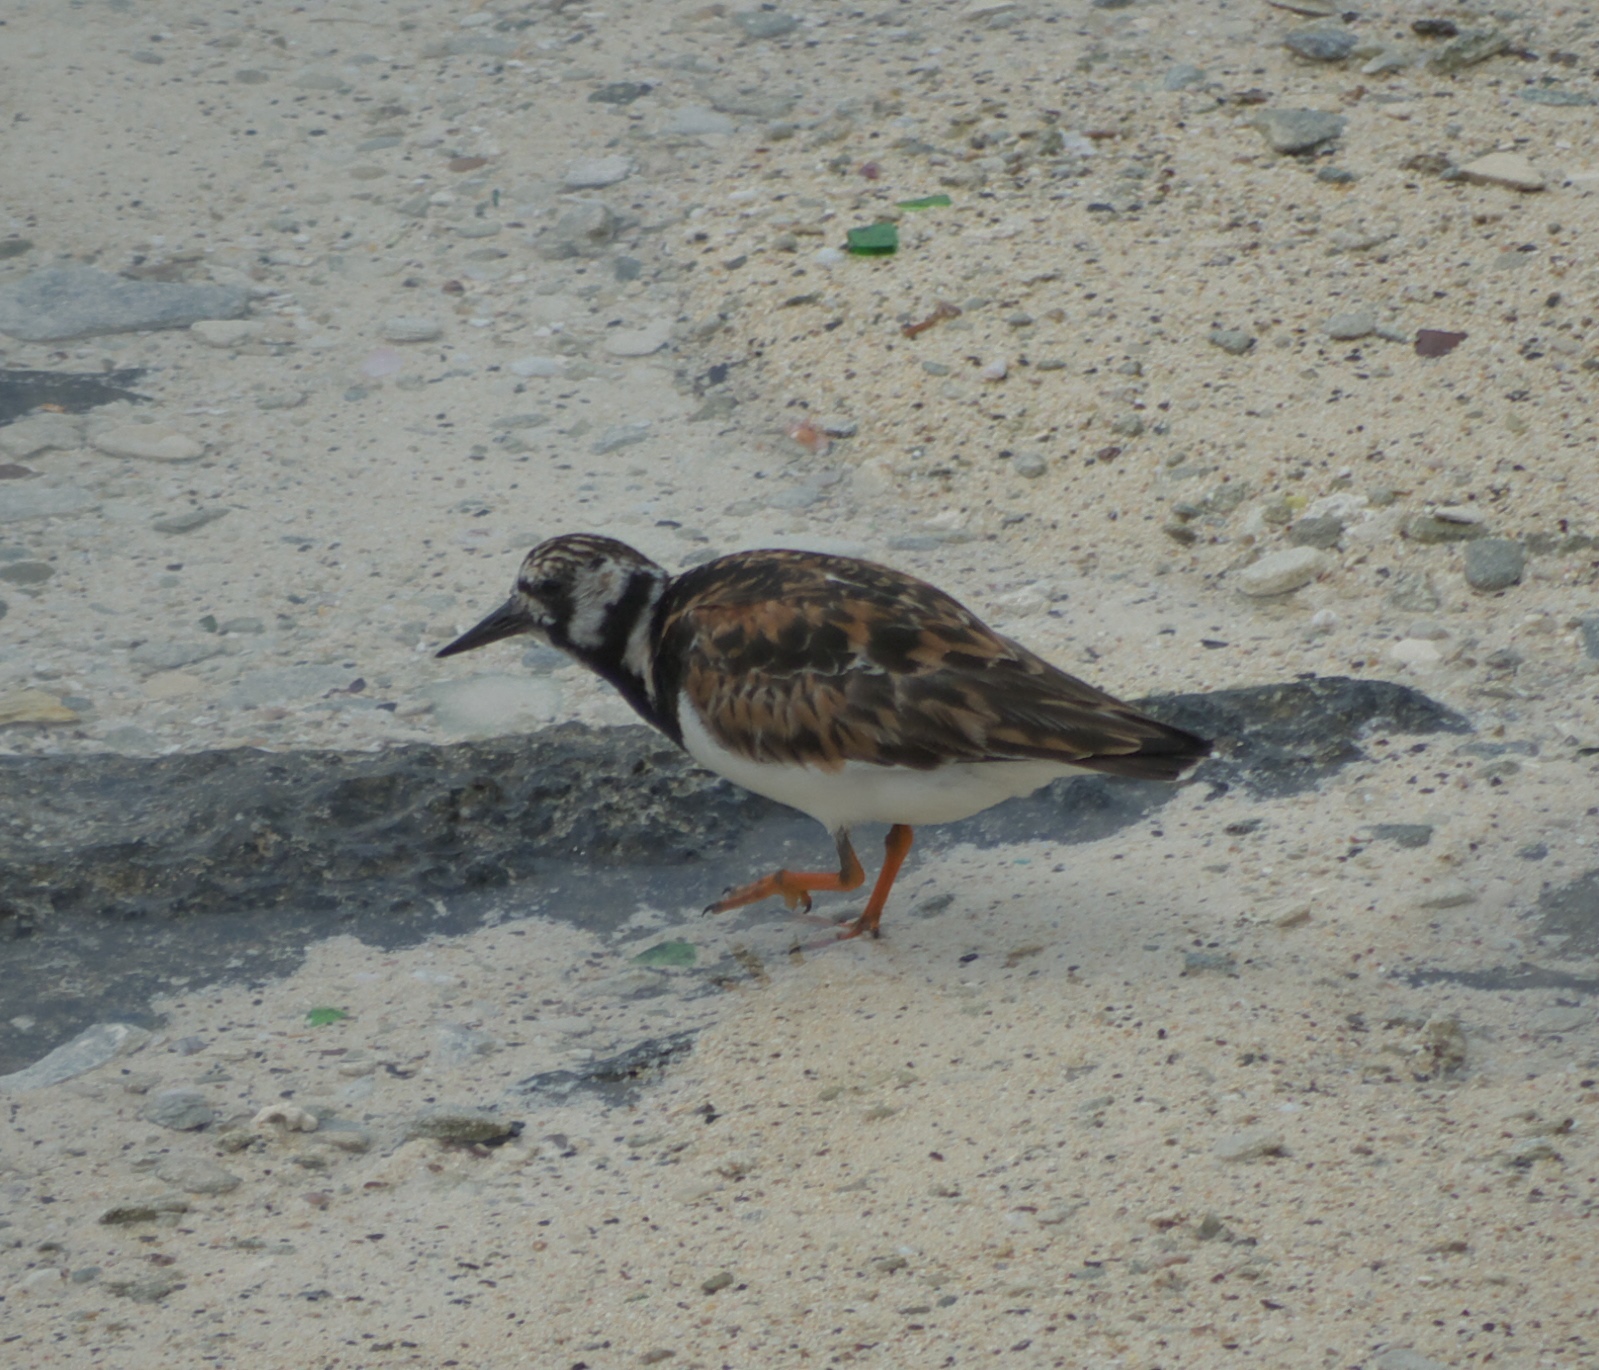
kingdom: Animalia
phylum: Chordata
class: Aves
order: Charadriiformes
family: Scolopacidae
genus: Arenaria
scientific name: Arenaria interpres
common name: Ruddy turnstone
